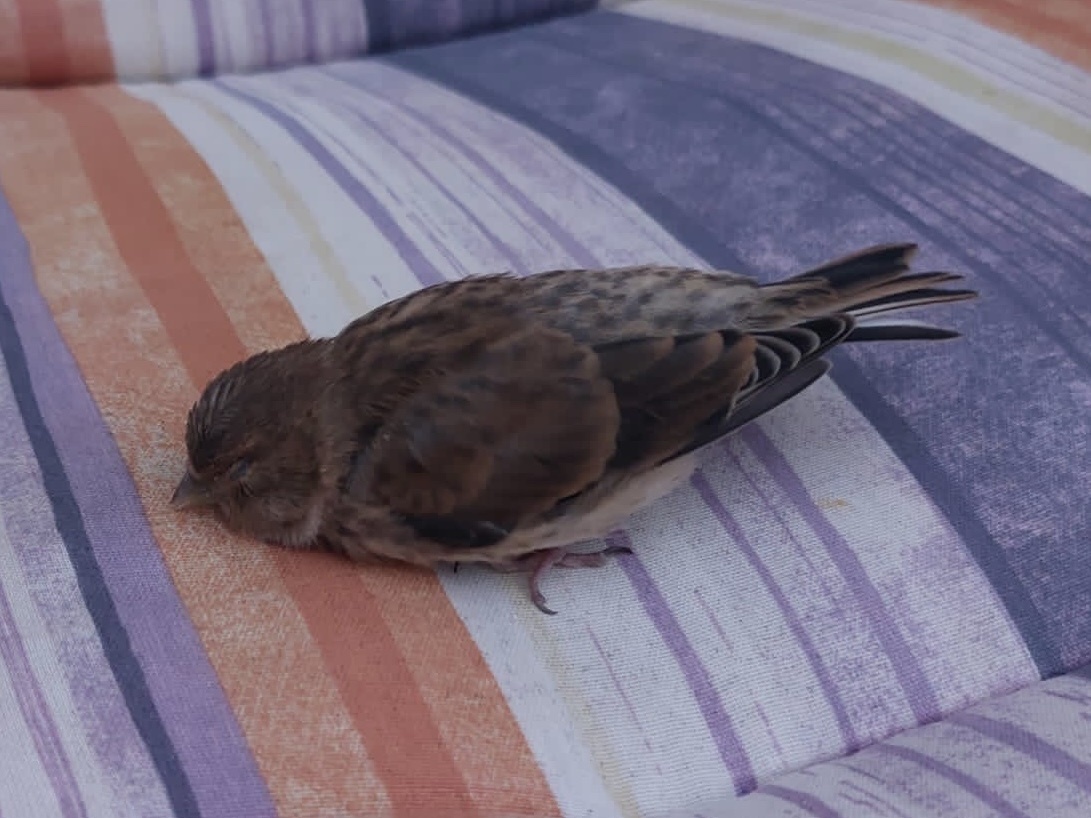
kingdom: Animalia
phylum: Chordata
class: Aves
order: Passeriformes
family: Fringillidae
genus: Linaria
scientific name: Linaria cannabina
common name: Common linnet
